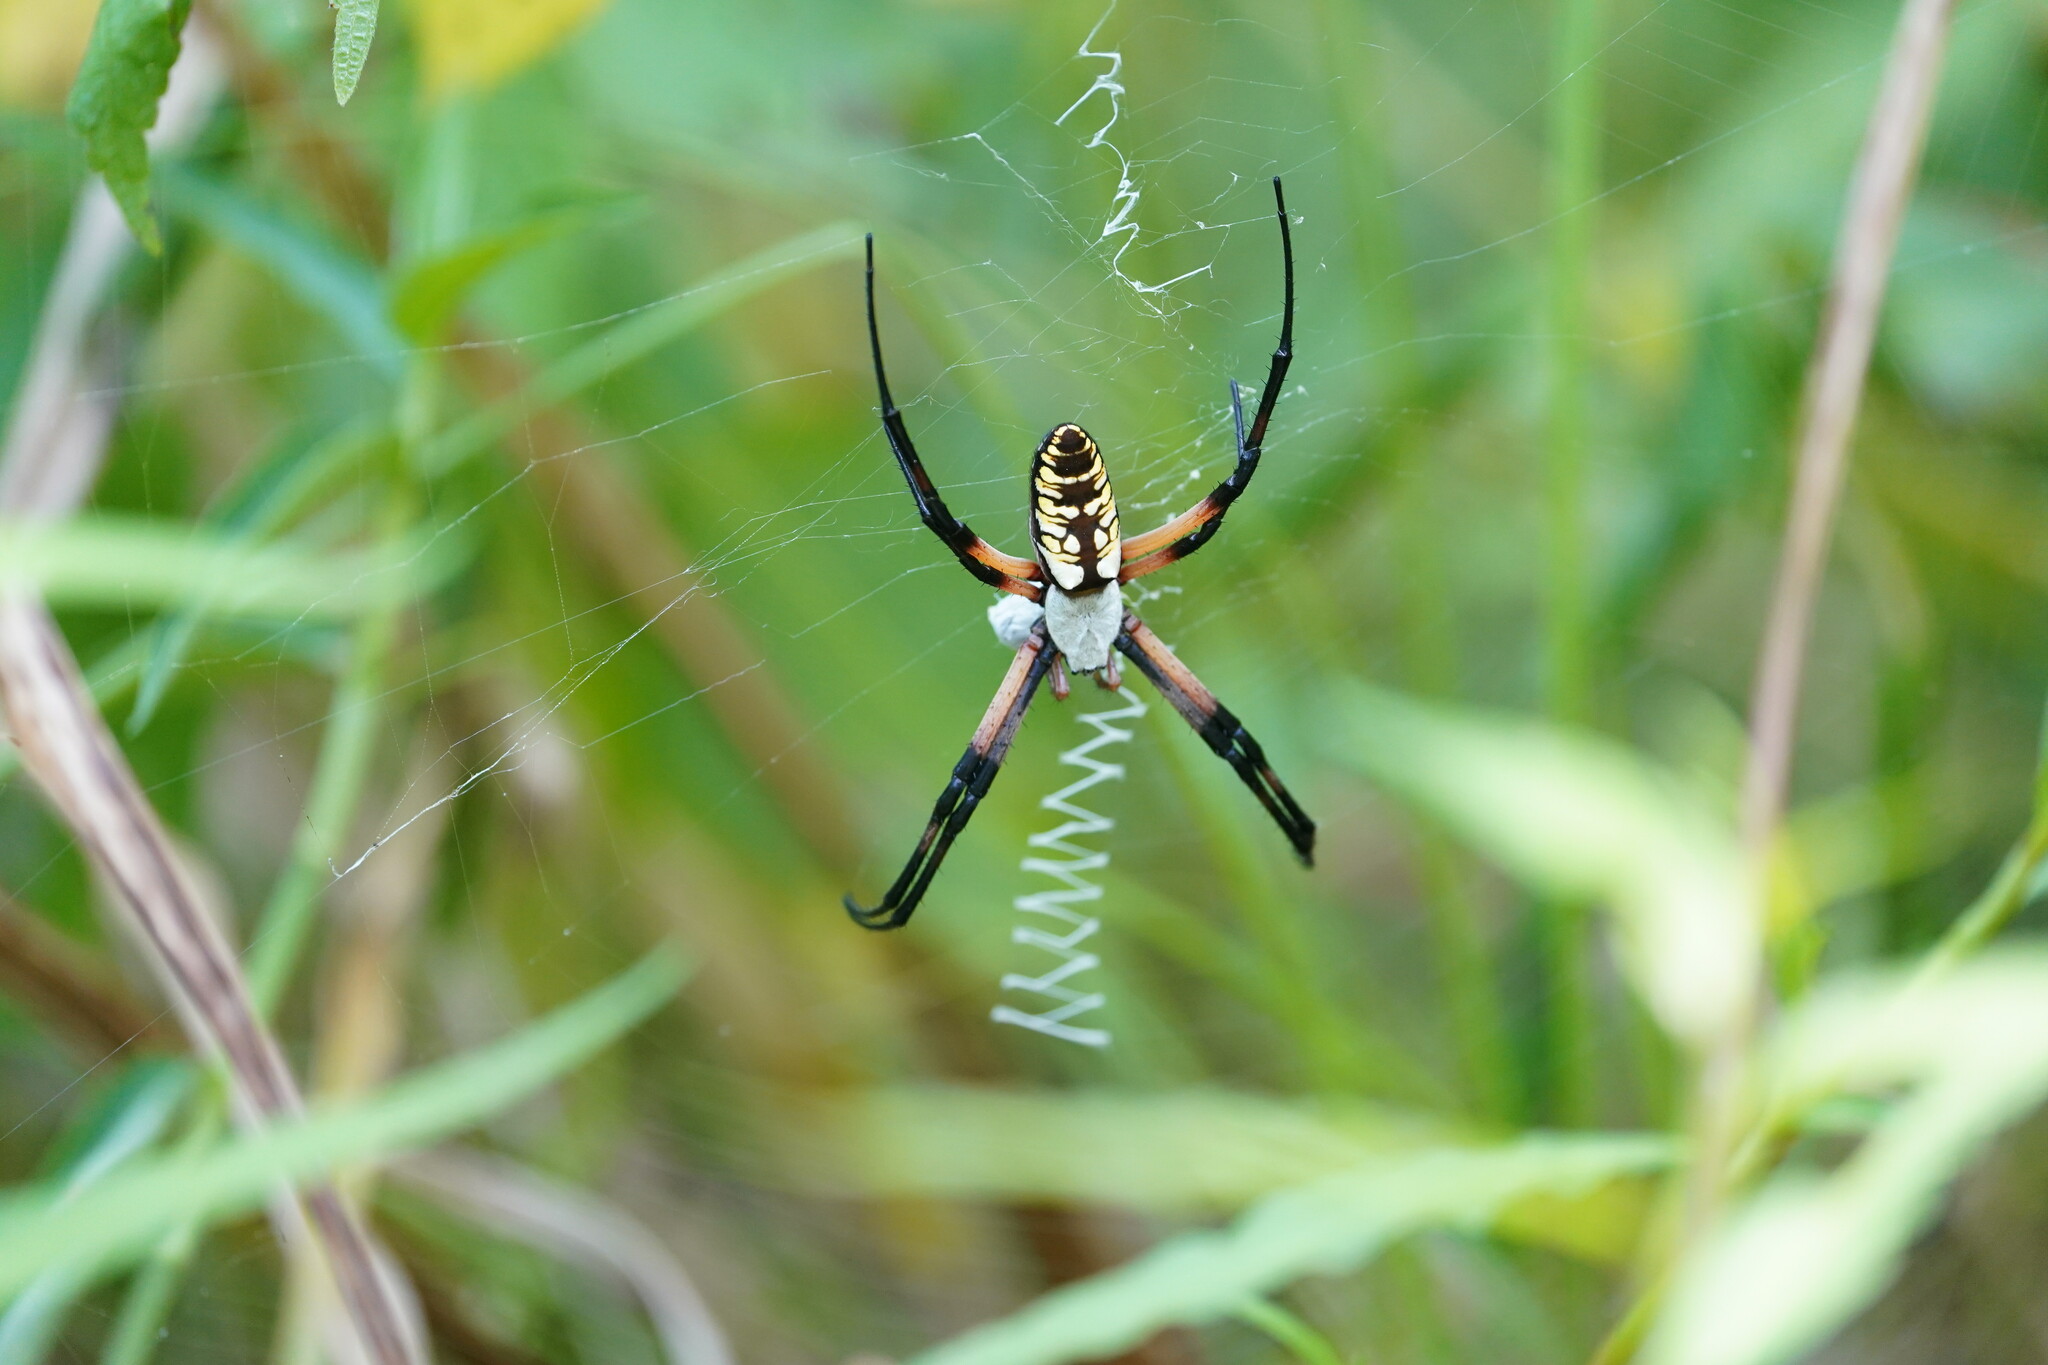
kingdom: Animalia
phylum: Arthropoda
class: Arachnida
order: Araneae
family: Araneidae
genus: Argiope
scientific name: Argiope aurantia
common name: Orb weavers
